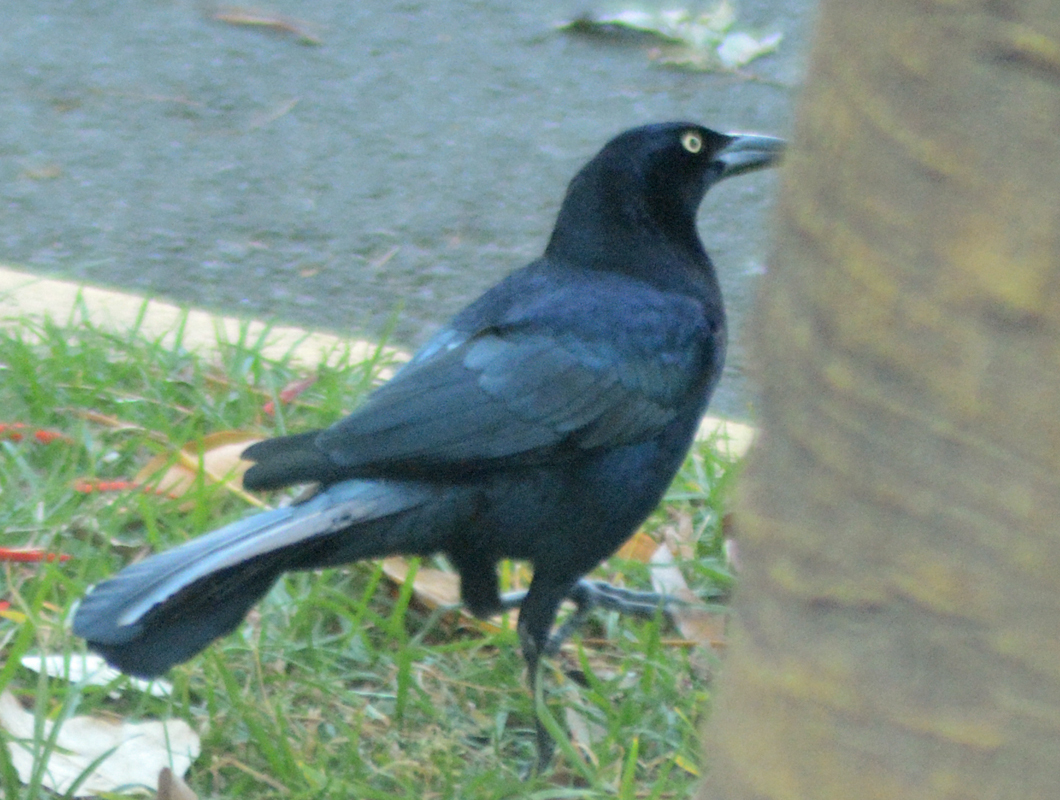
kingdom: Animalia
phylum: Chordata
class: Aves
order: Passeriformes
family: Icteridae
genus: Quiscalus
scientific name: Quiscalus mexicanus
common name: Great-tailed grackle
